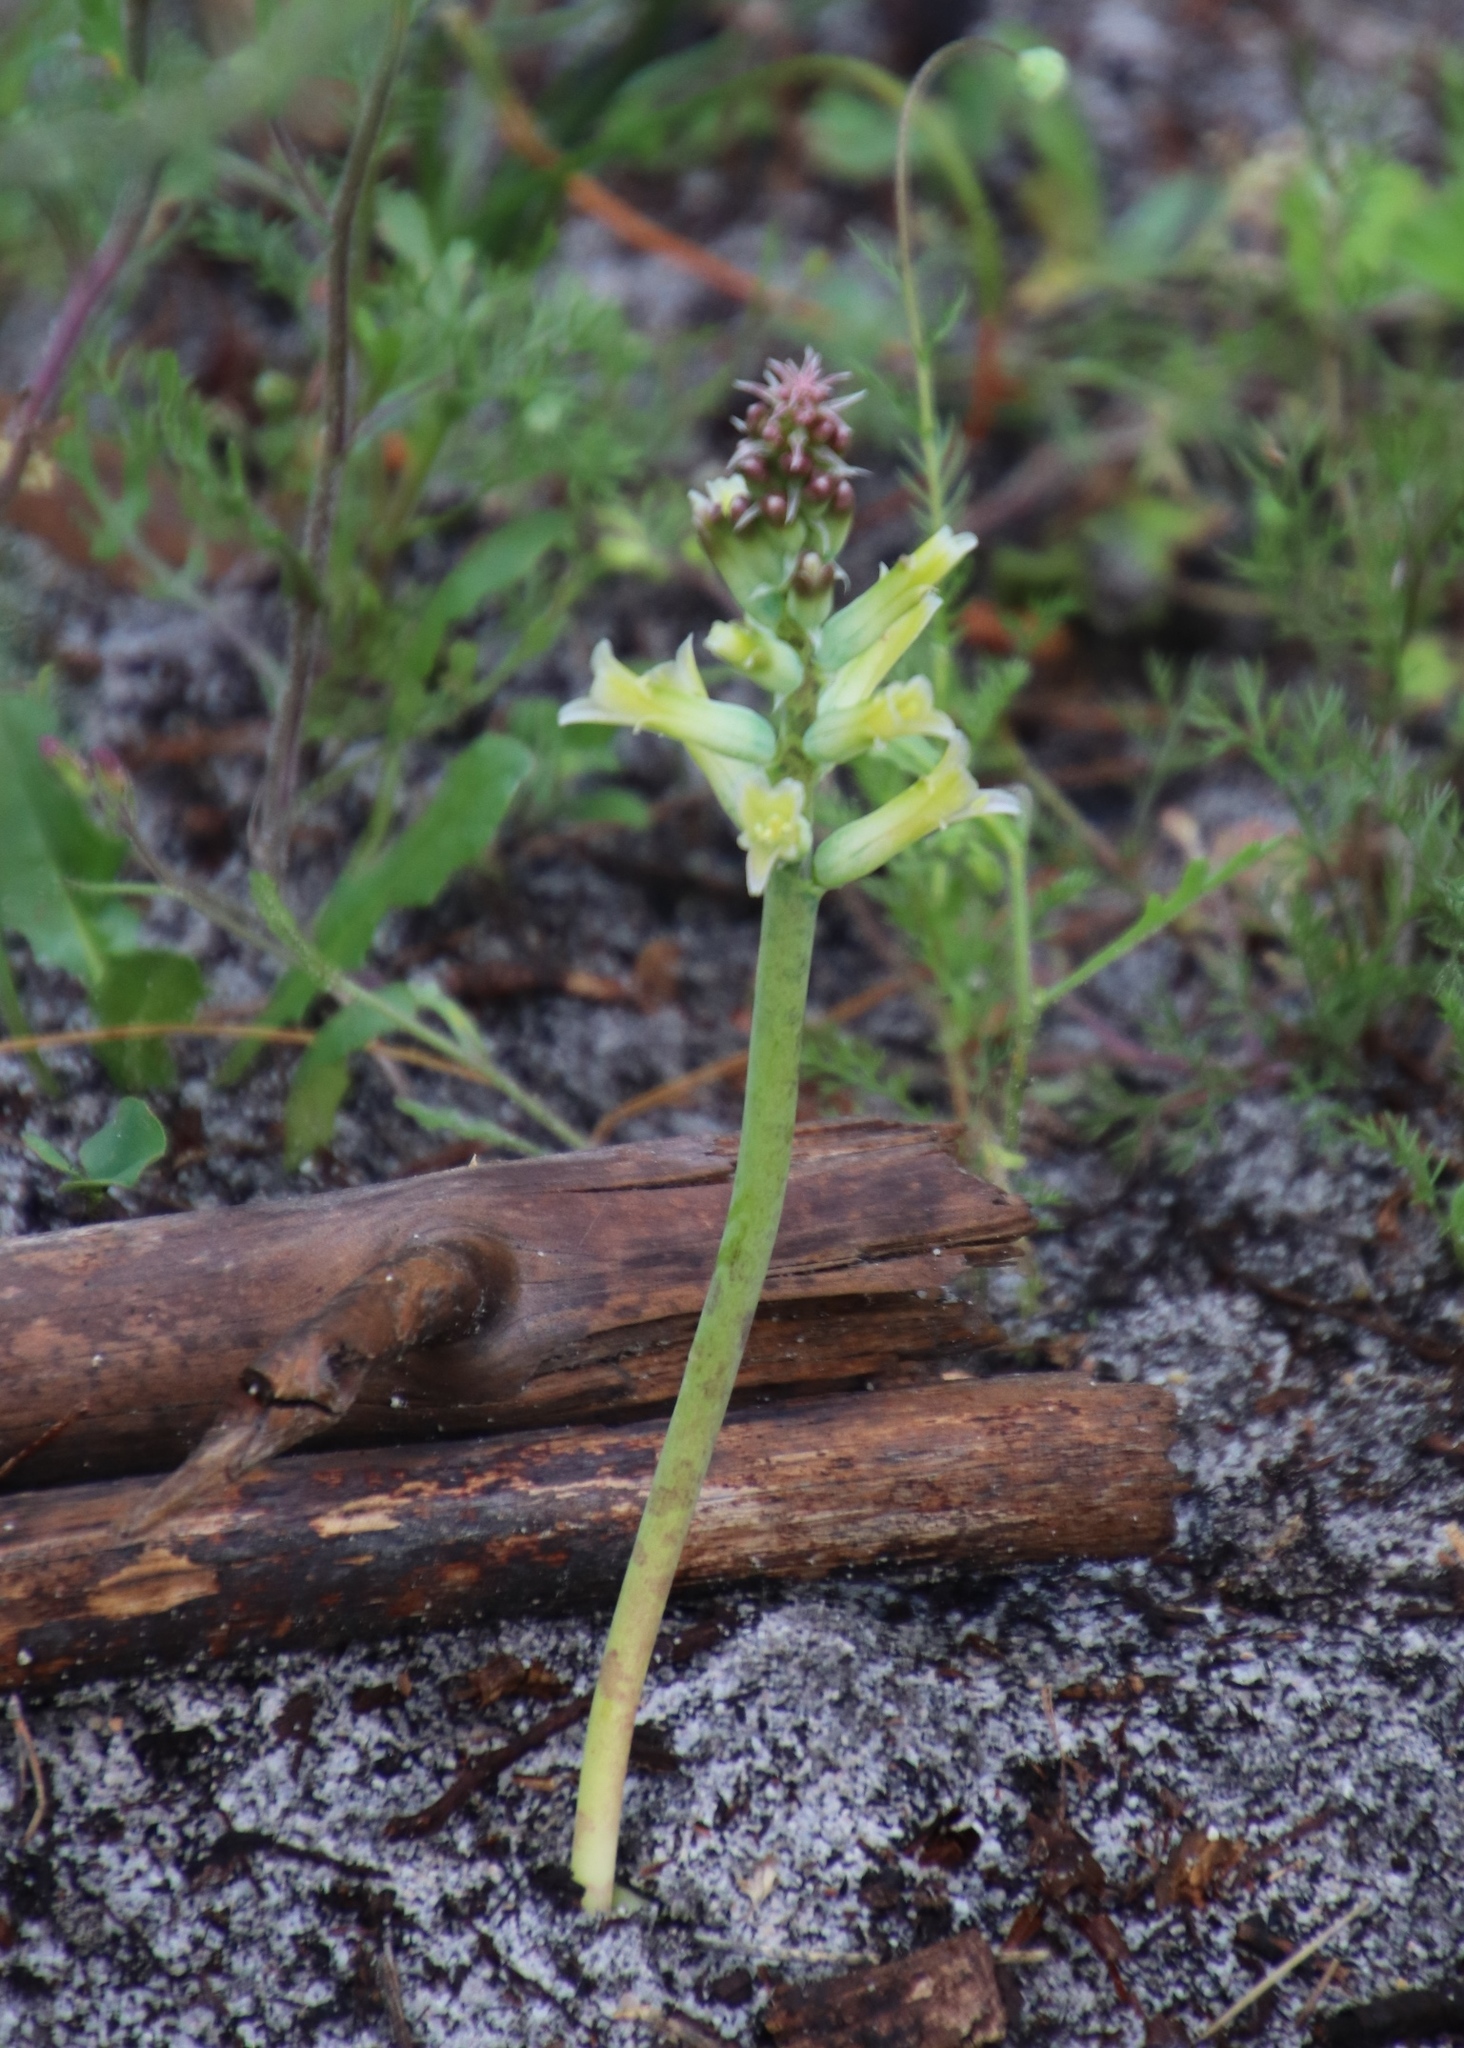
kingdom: Plantae
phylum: Tracheophyta
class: Liliopsida
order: Asparagales
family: Asparagaceae
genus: Lachenalia
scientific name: Lachenalia orchioides
